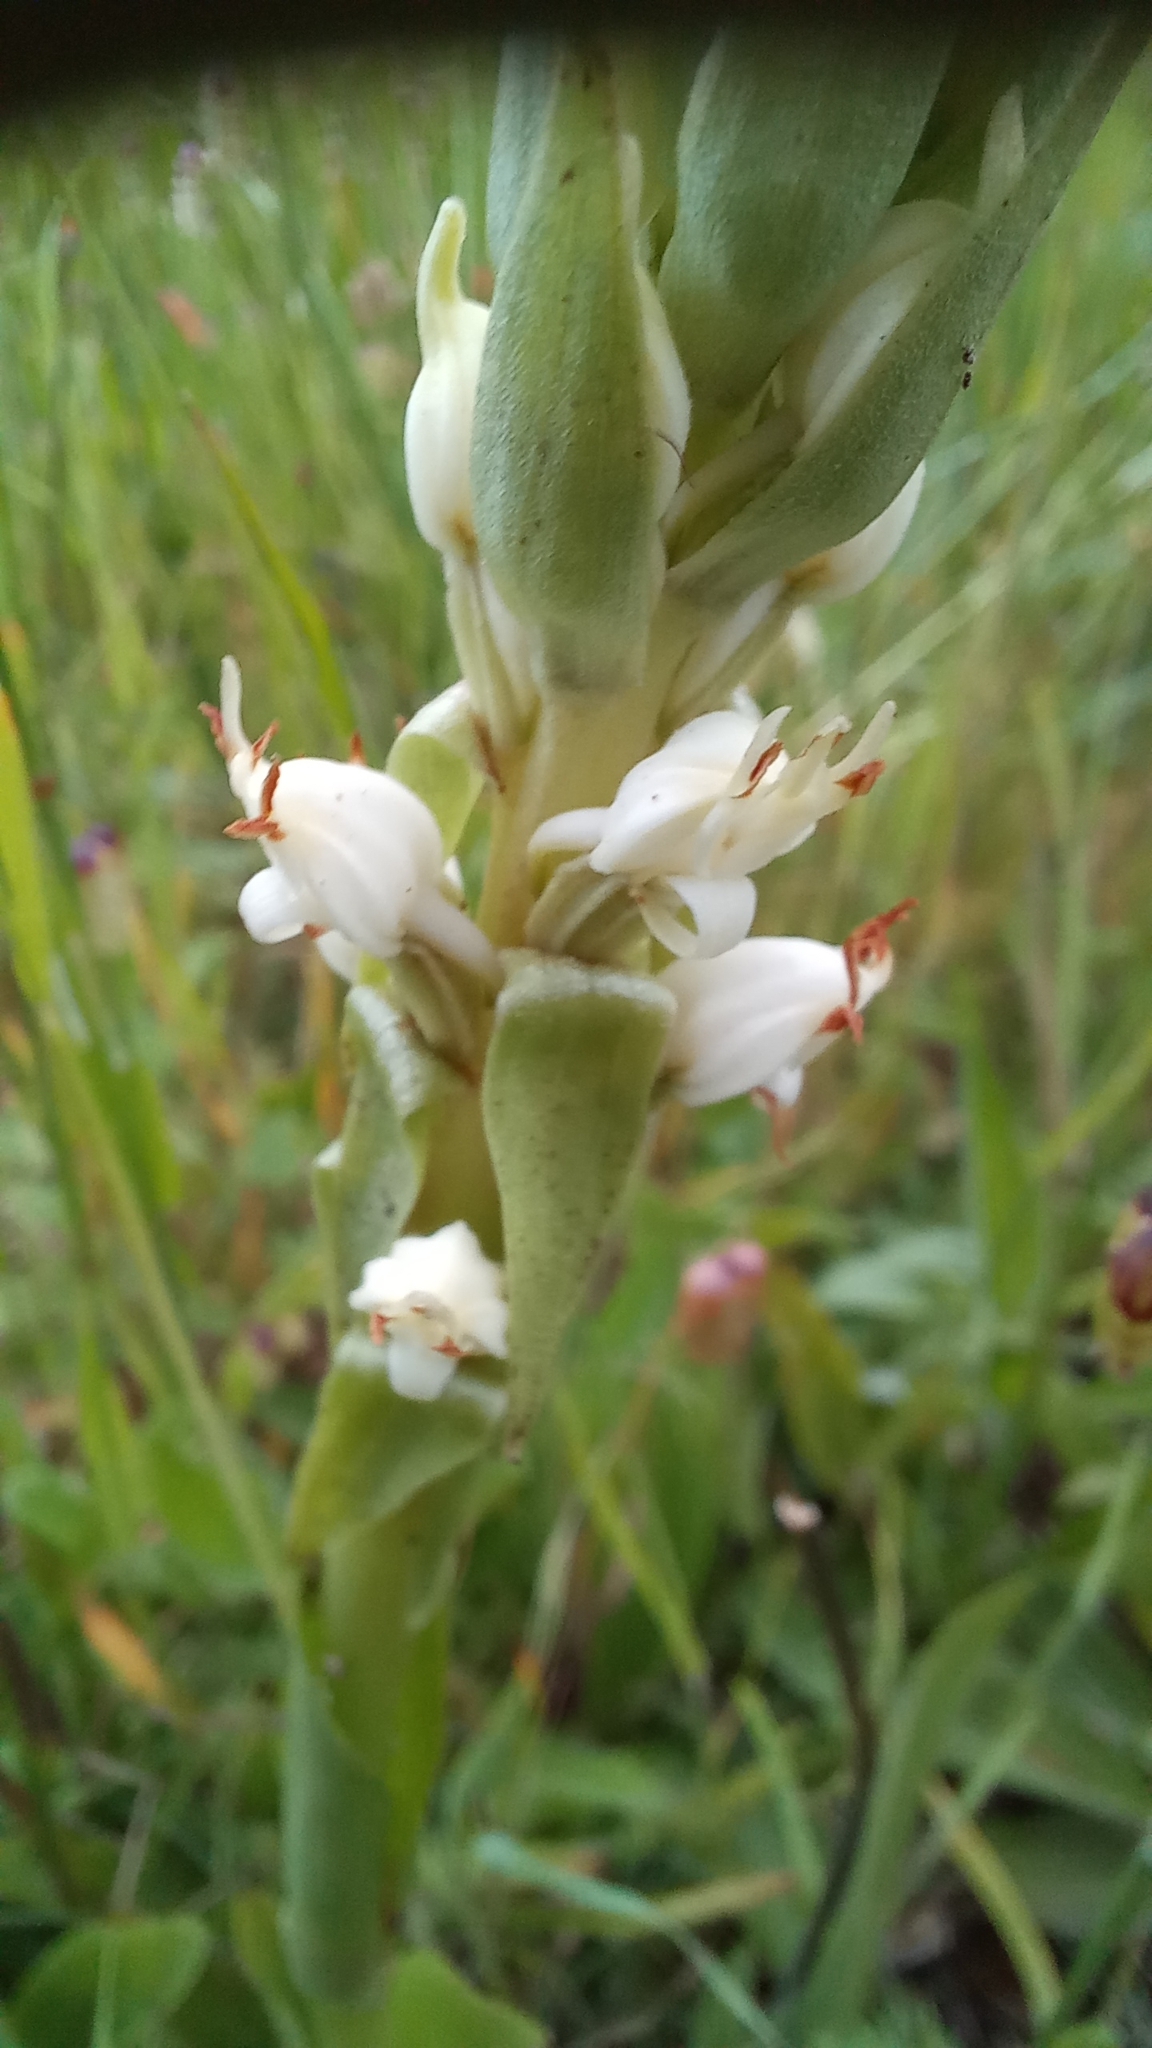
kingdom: Plantae
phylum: Tracheophyta
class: Liliopsida
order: Asparagales
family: Orchidaceae
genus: Satyrium
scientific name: Satyrium ligulatum
